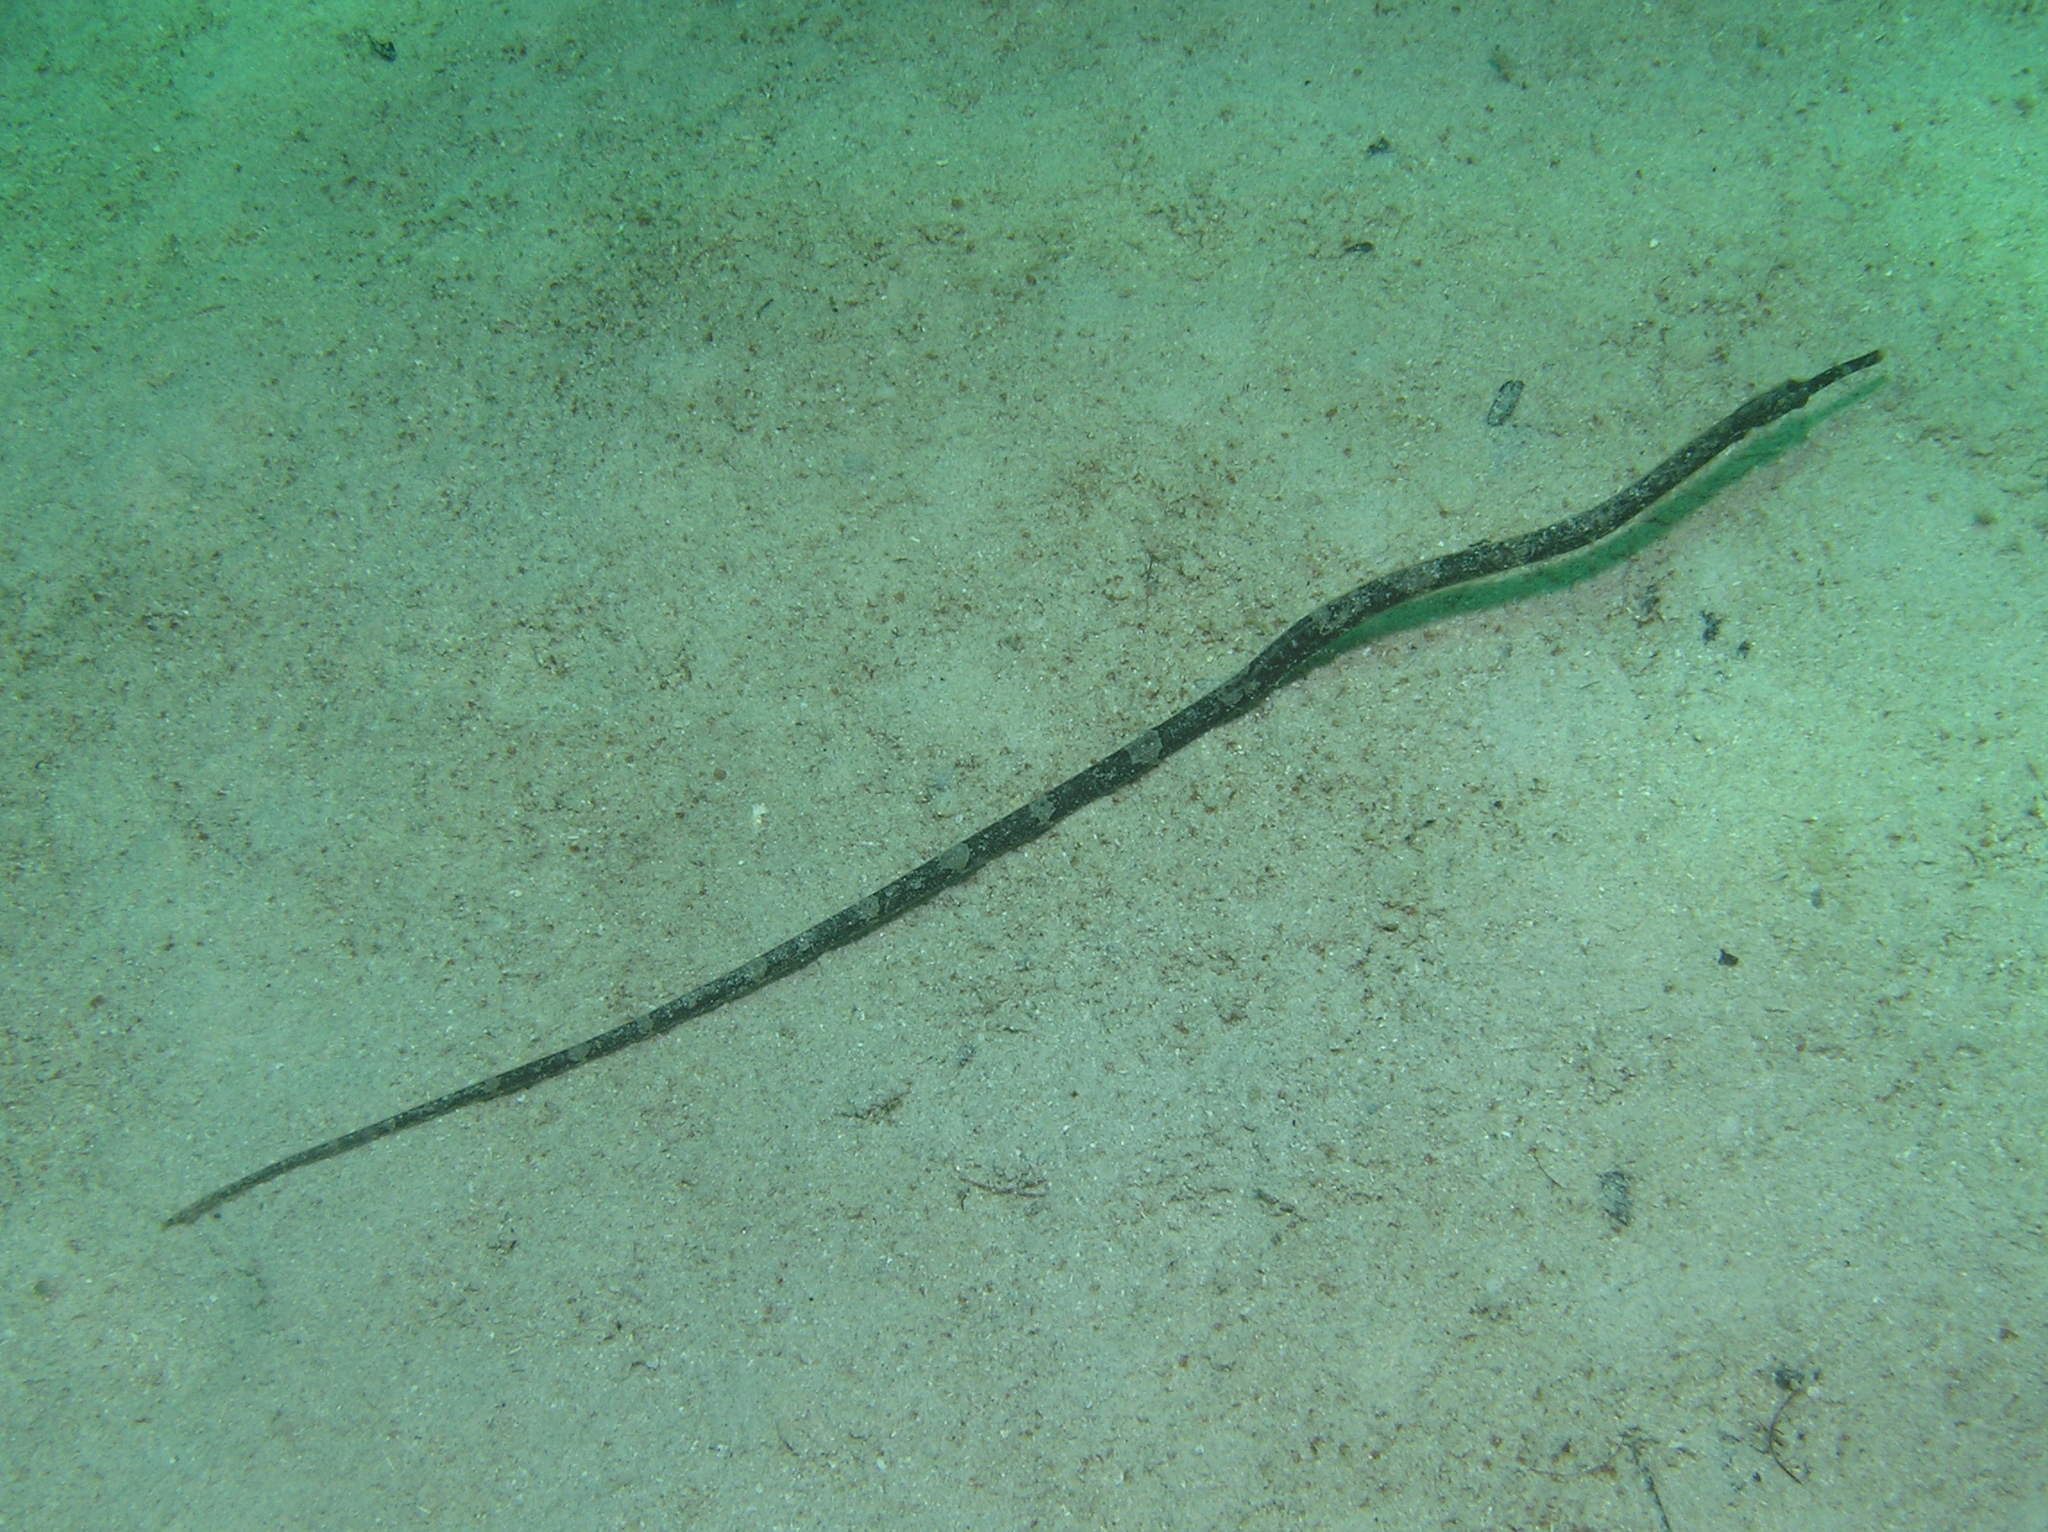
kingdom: Animalia
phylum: Chordata
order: Syngnathiformes
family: Syngnathidae
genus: Trachyrhamphus
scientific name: Trachyrhamphus longirostris
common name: Long-head pipefish
